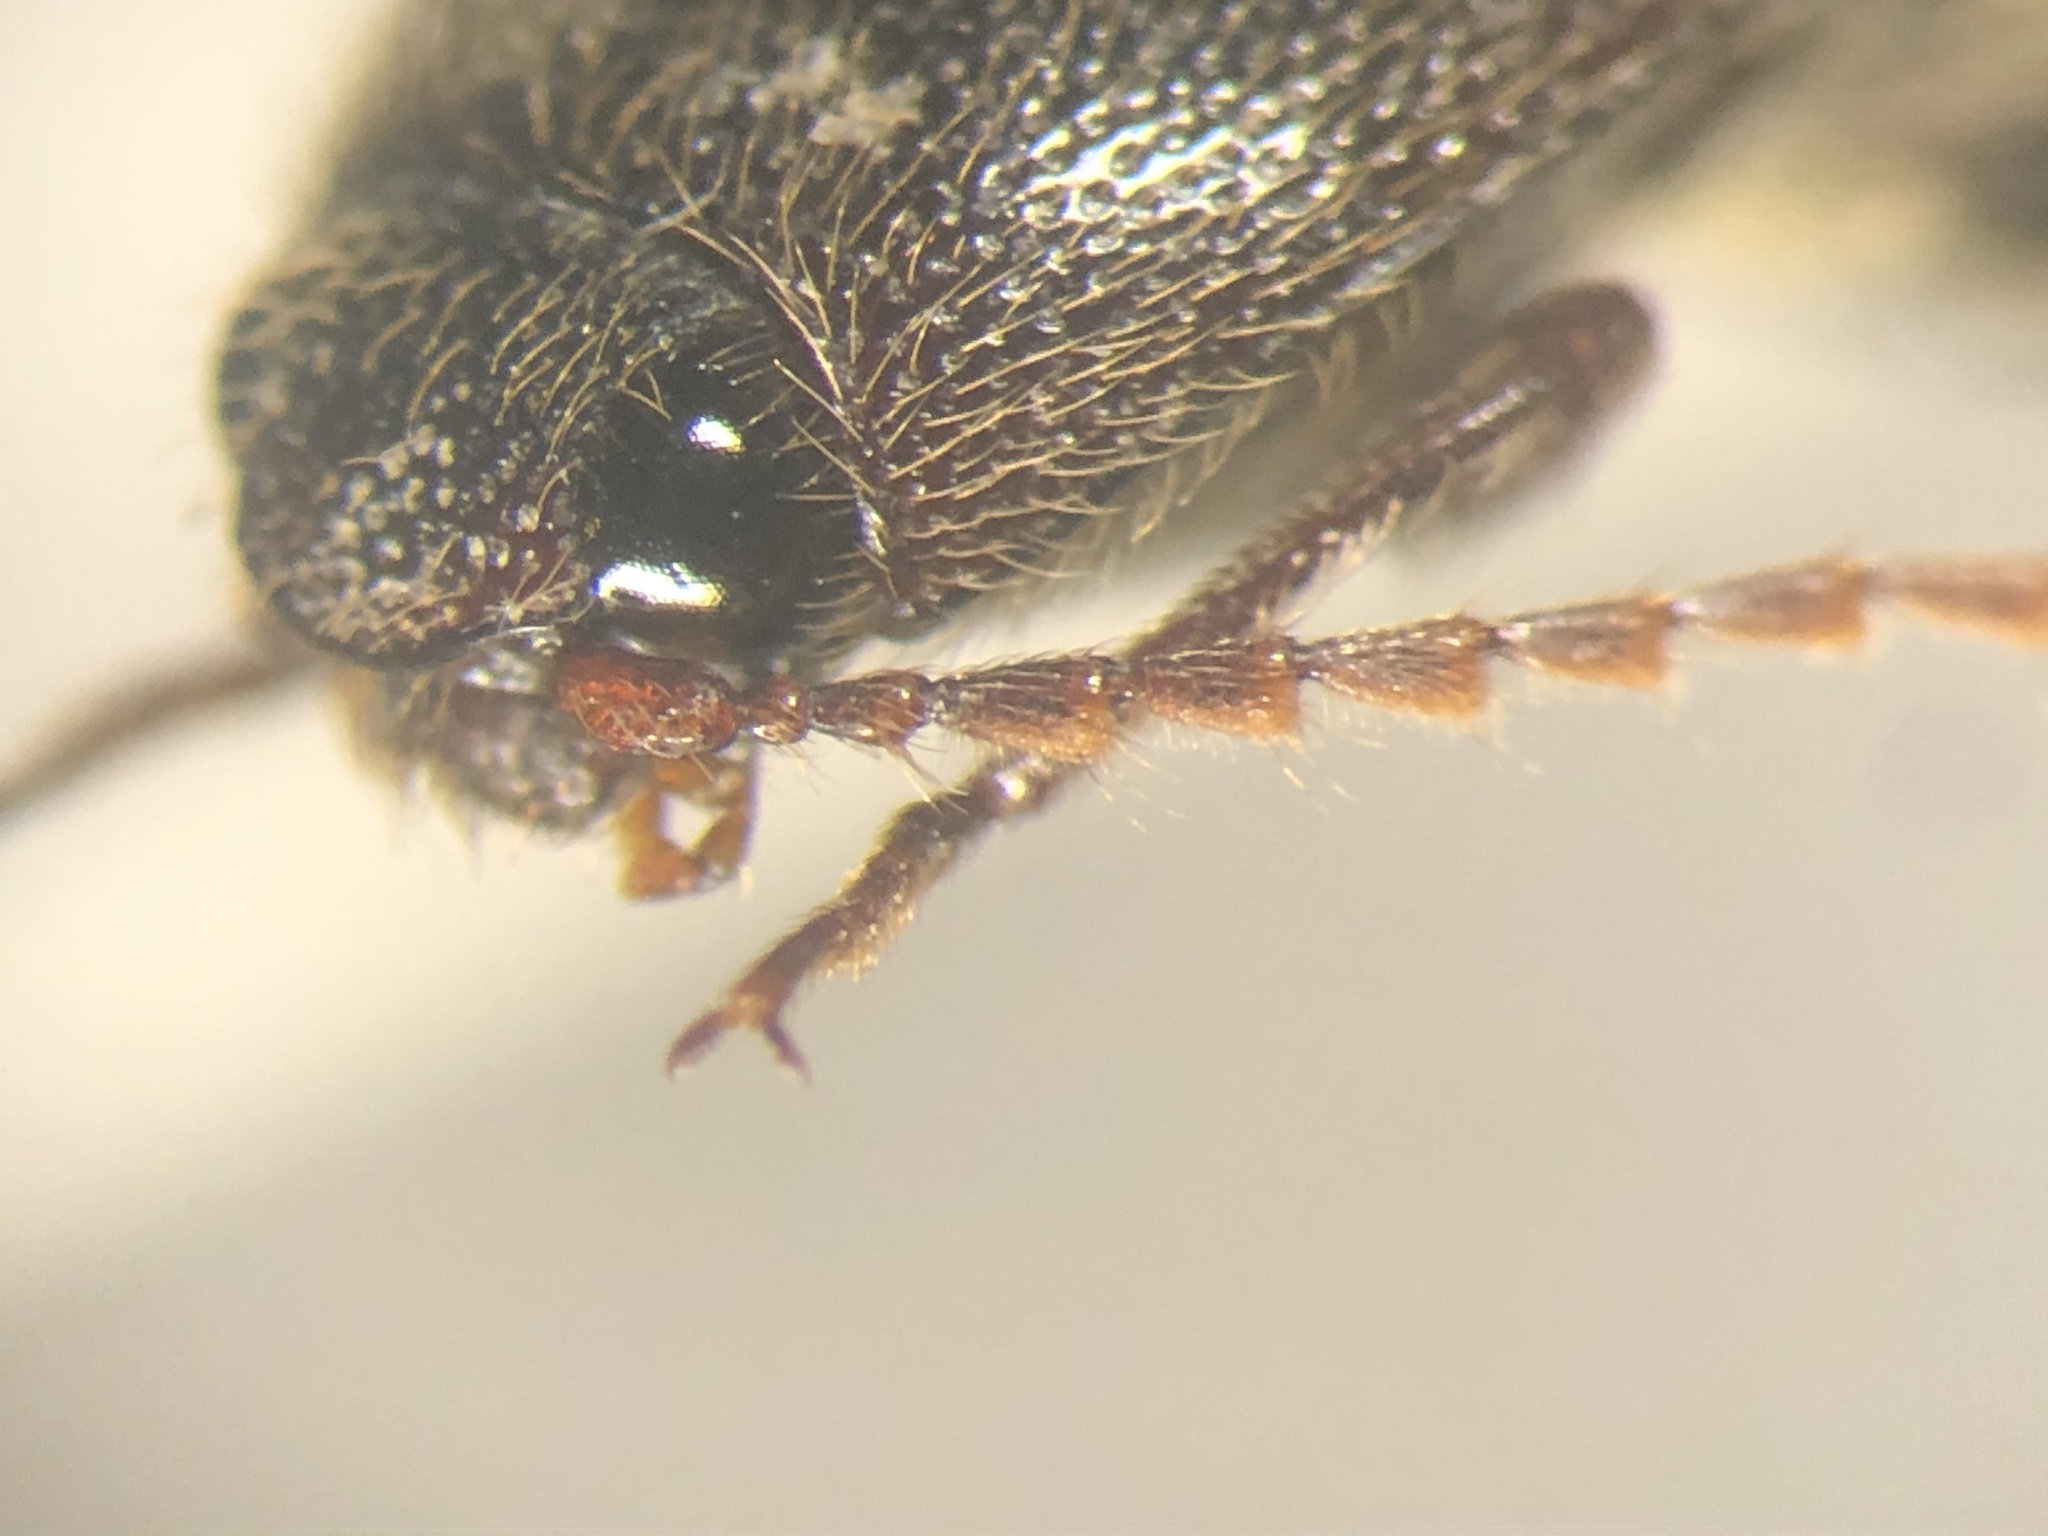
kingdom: Animalia
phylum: Arthropoda
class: Insecta
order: Coleoptera
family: Elateridae
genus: Melanotus
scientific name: Melanotus similis
